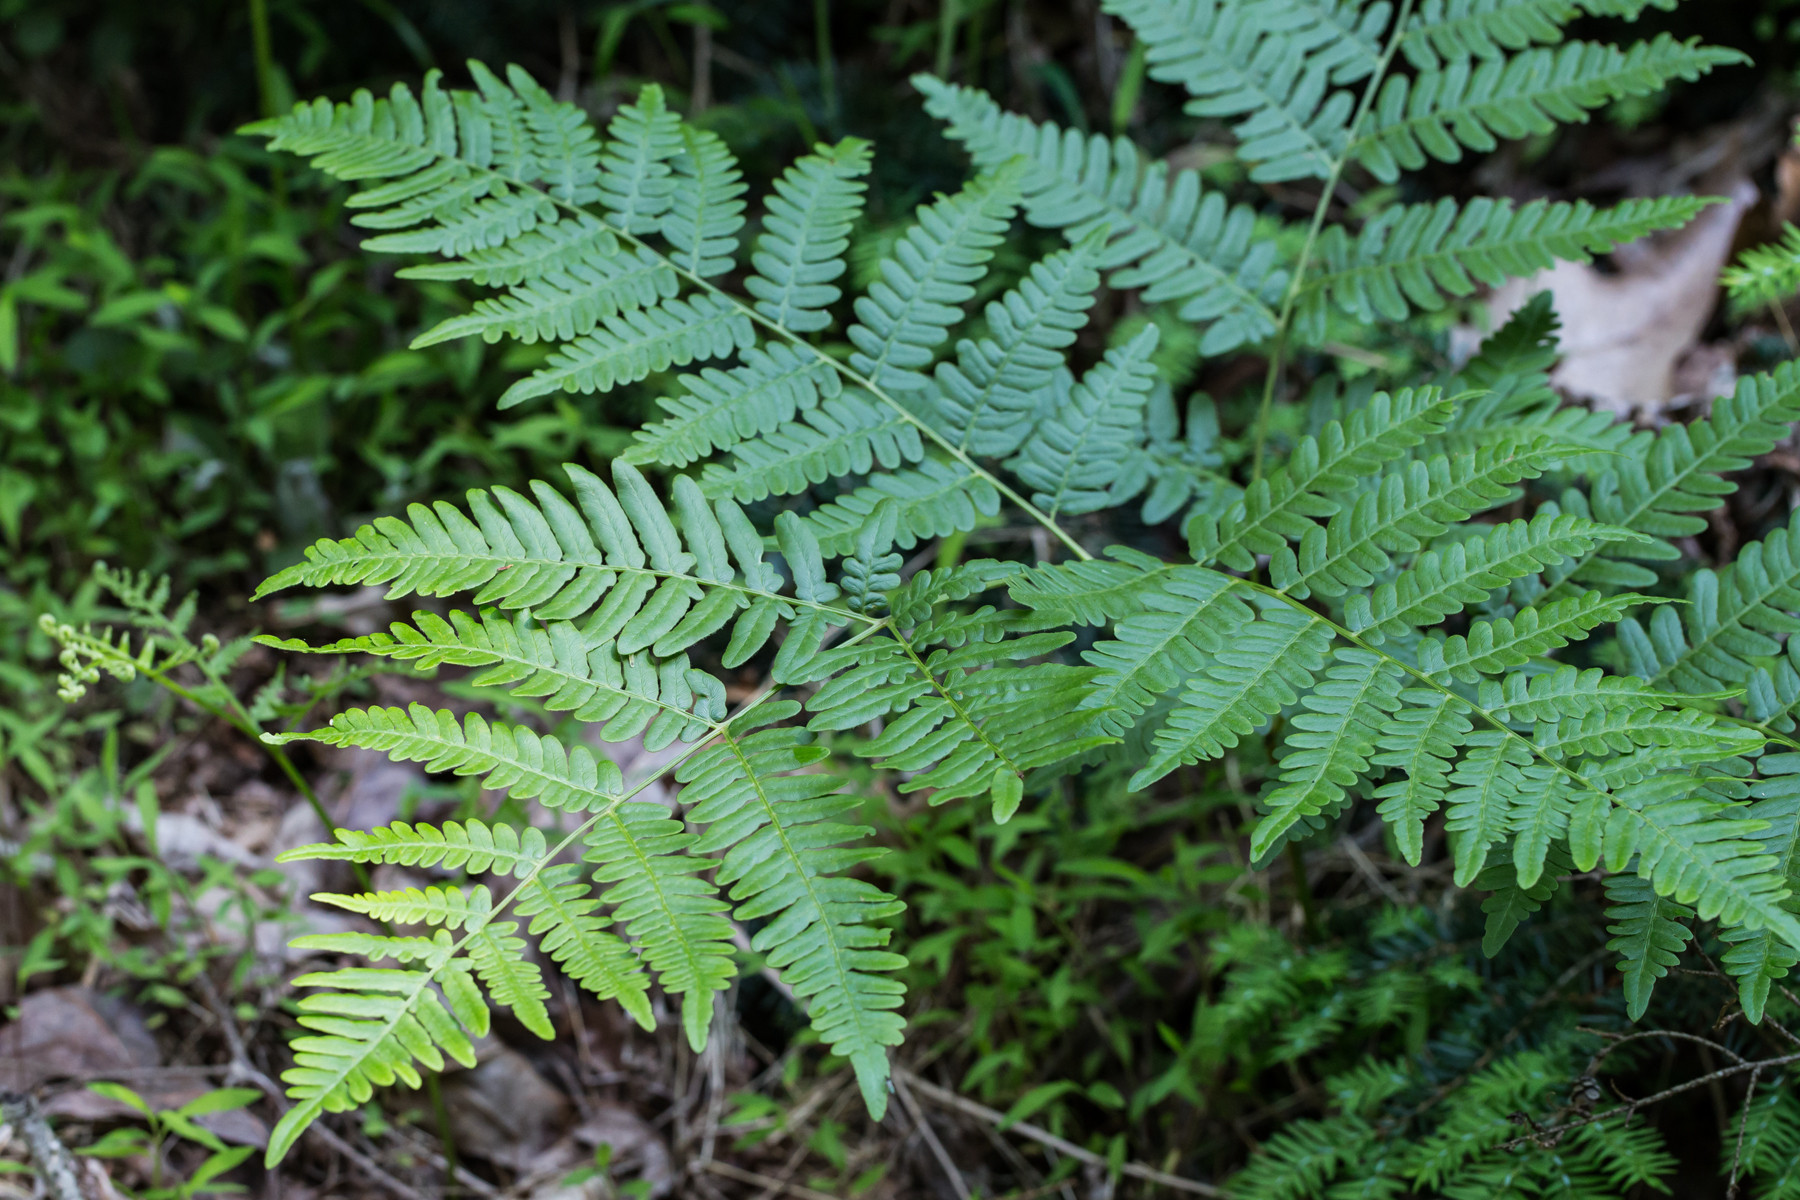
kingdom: Plantae
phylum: Tracheophyta
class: Polypodiopsida
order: Polypodiales
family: Dennstaedtiaceae
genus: Pteridium
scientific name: Pteridium aquilinum
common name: Bracken
